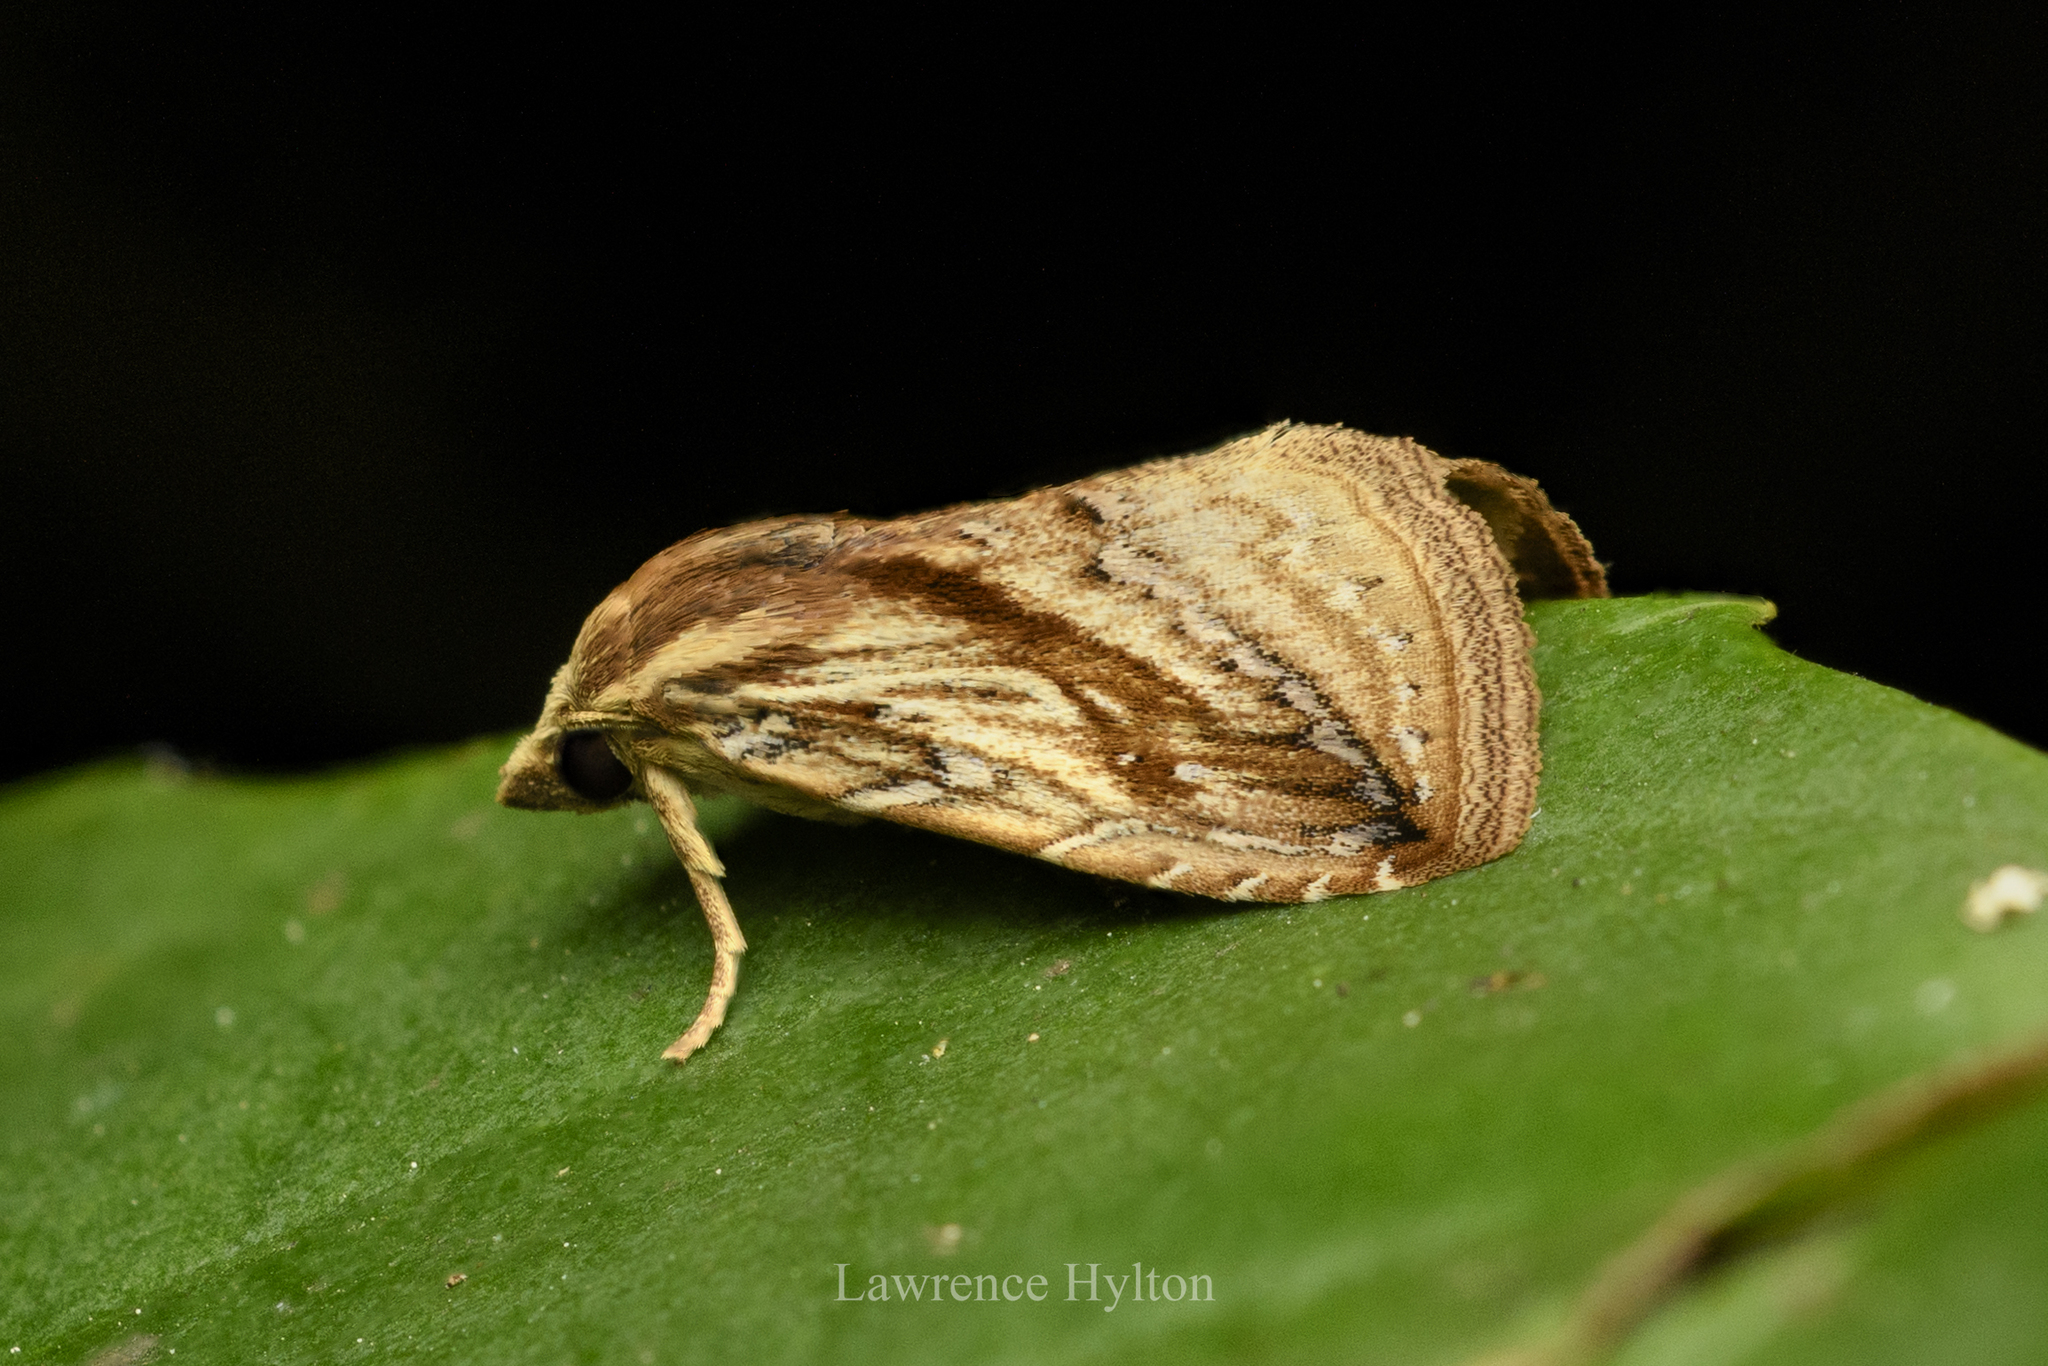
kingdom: Animalia
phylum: Arthropoda
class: Insecta
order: Lepidoptera
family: Erebidae
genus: Rivula
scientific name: Rivula striatura
